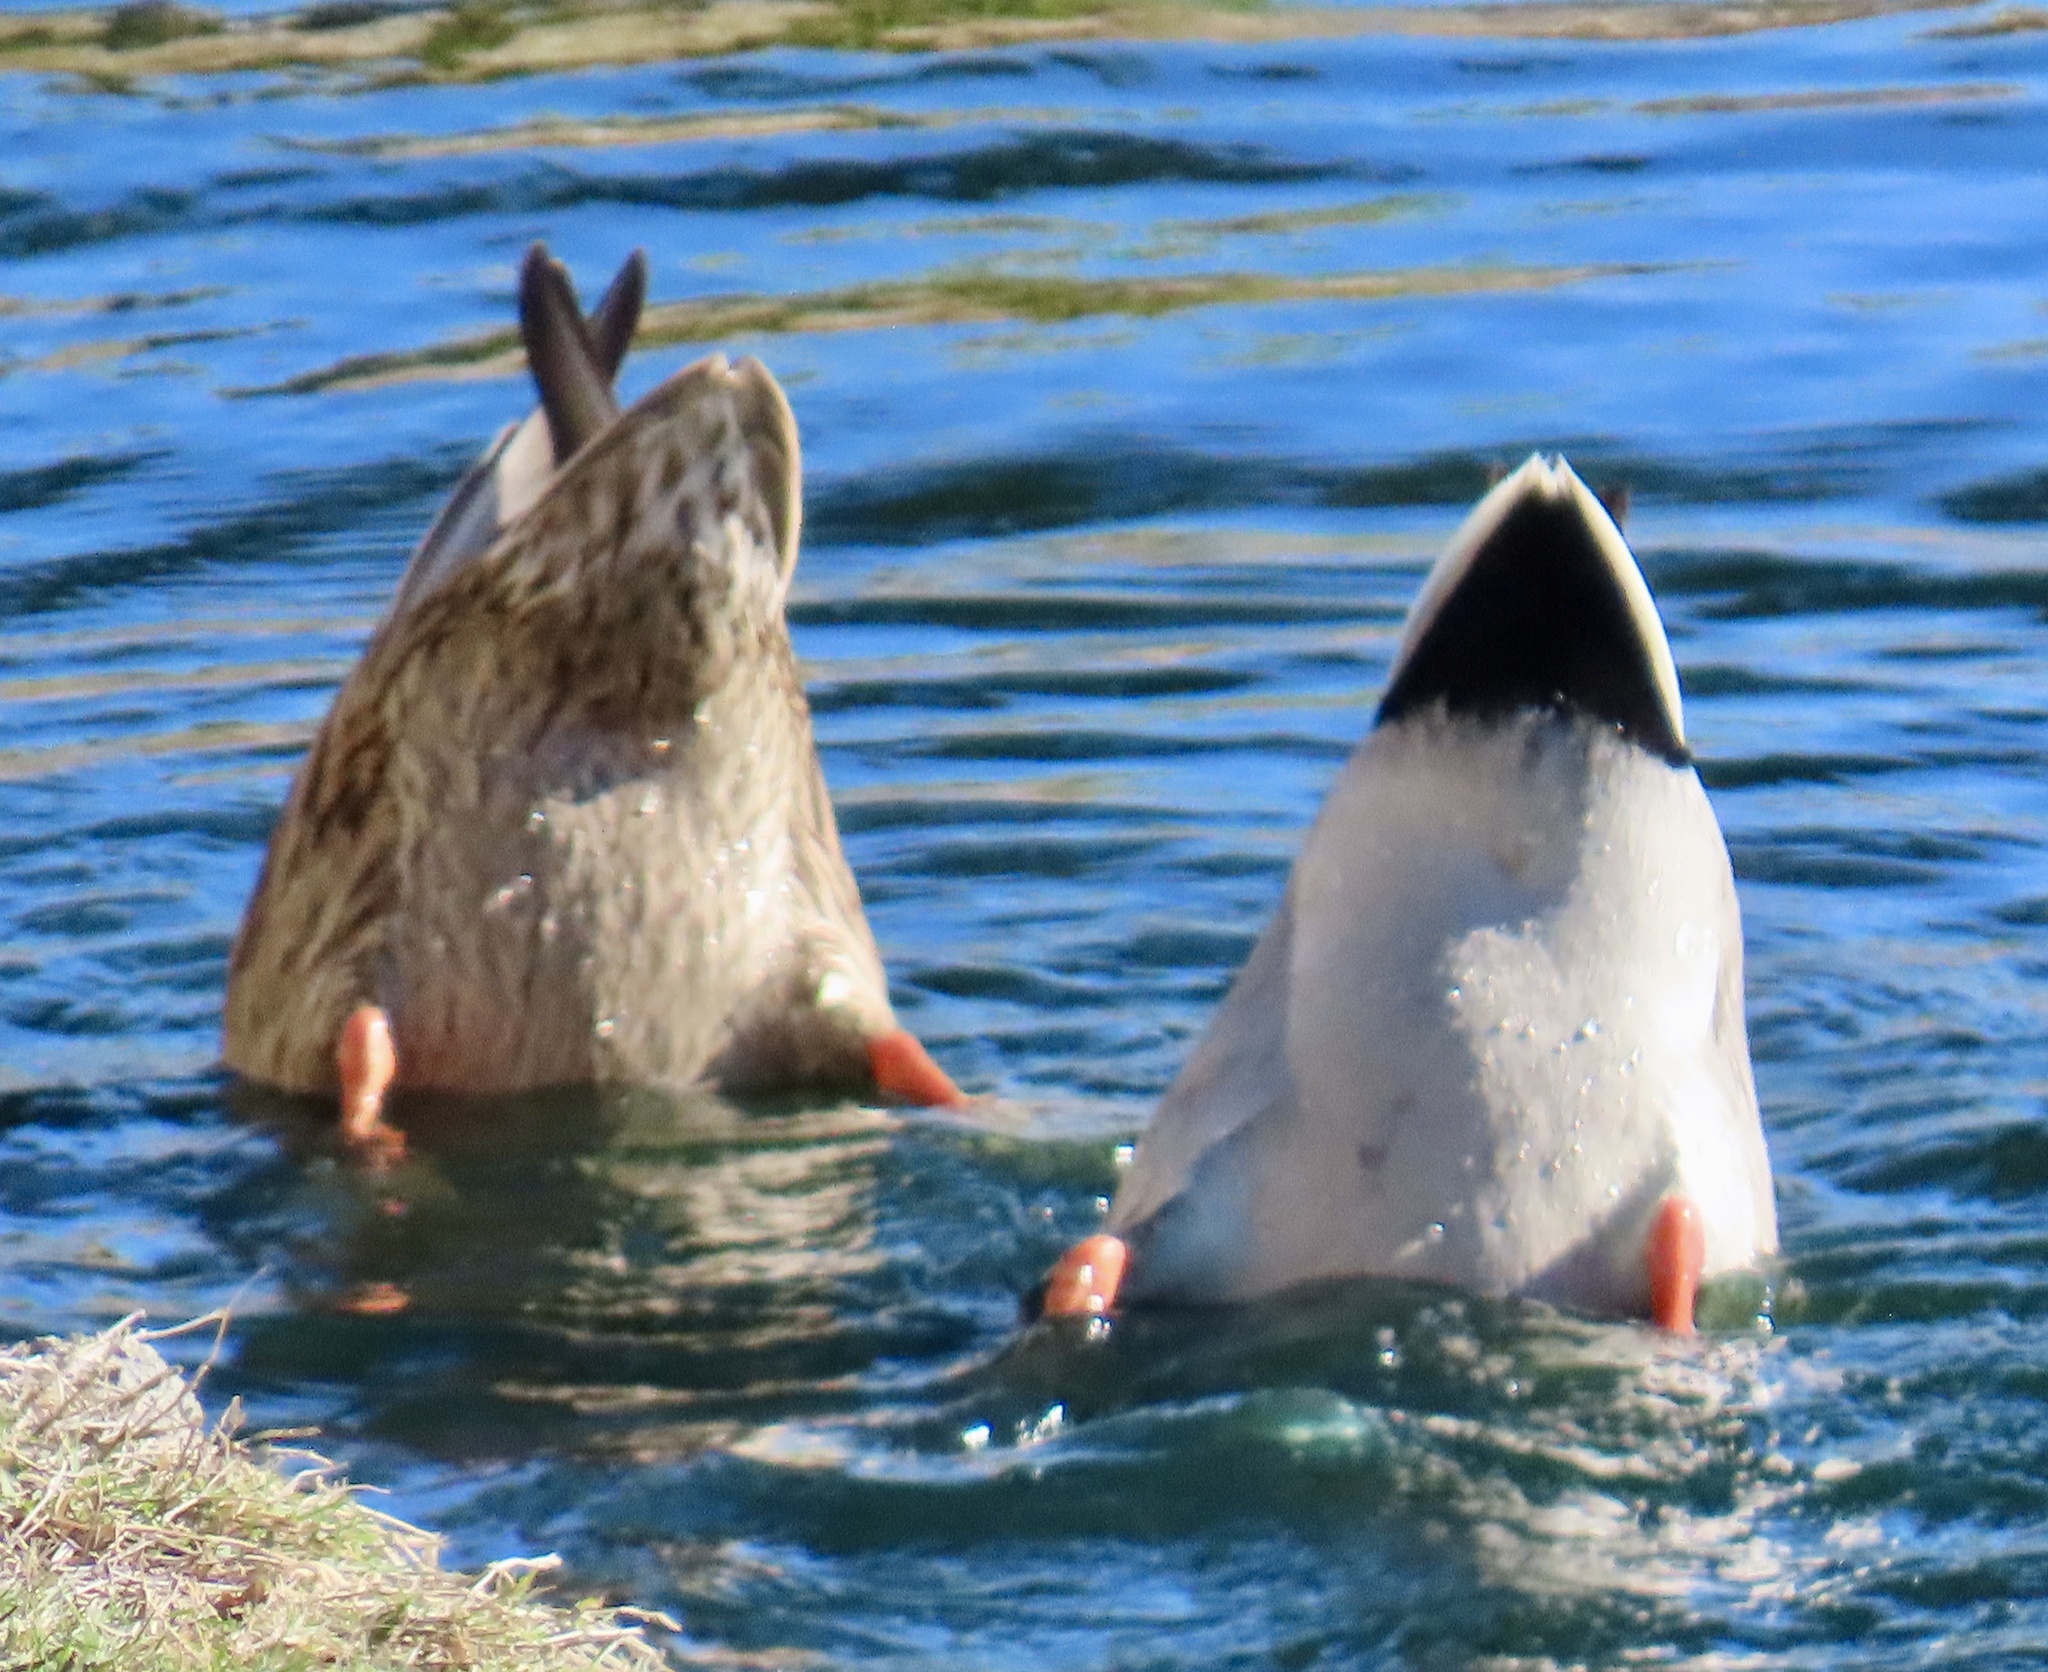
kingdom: Animalia
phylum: Chordata
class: Aves
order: Anseriformes
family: Anatidae
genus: Anas
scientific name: Anas platyrhynchos
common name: Mallard
